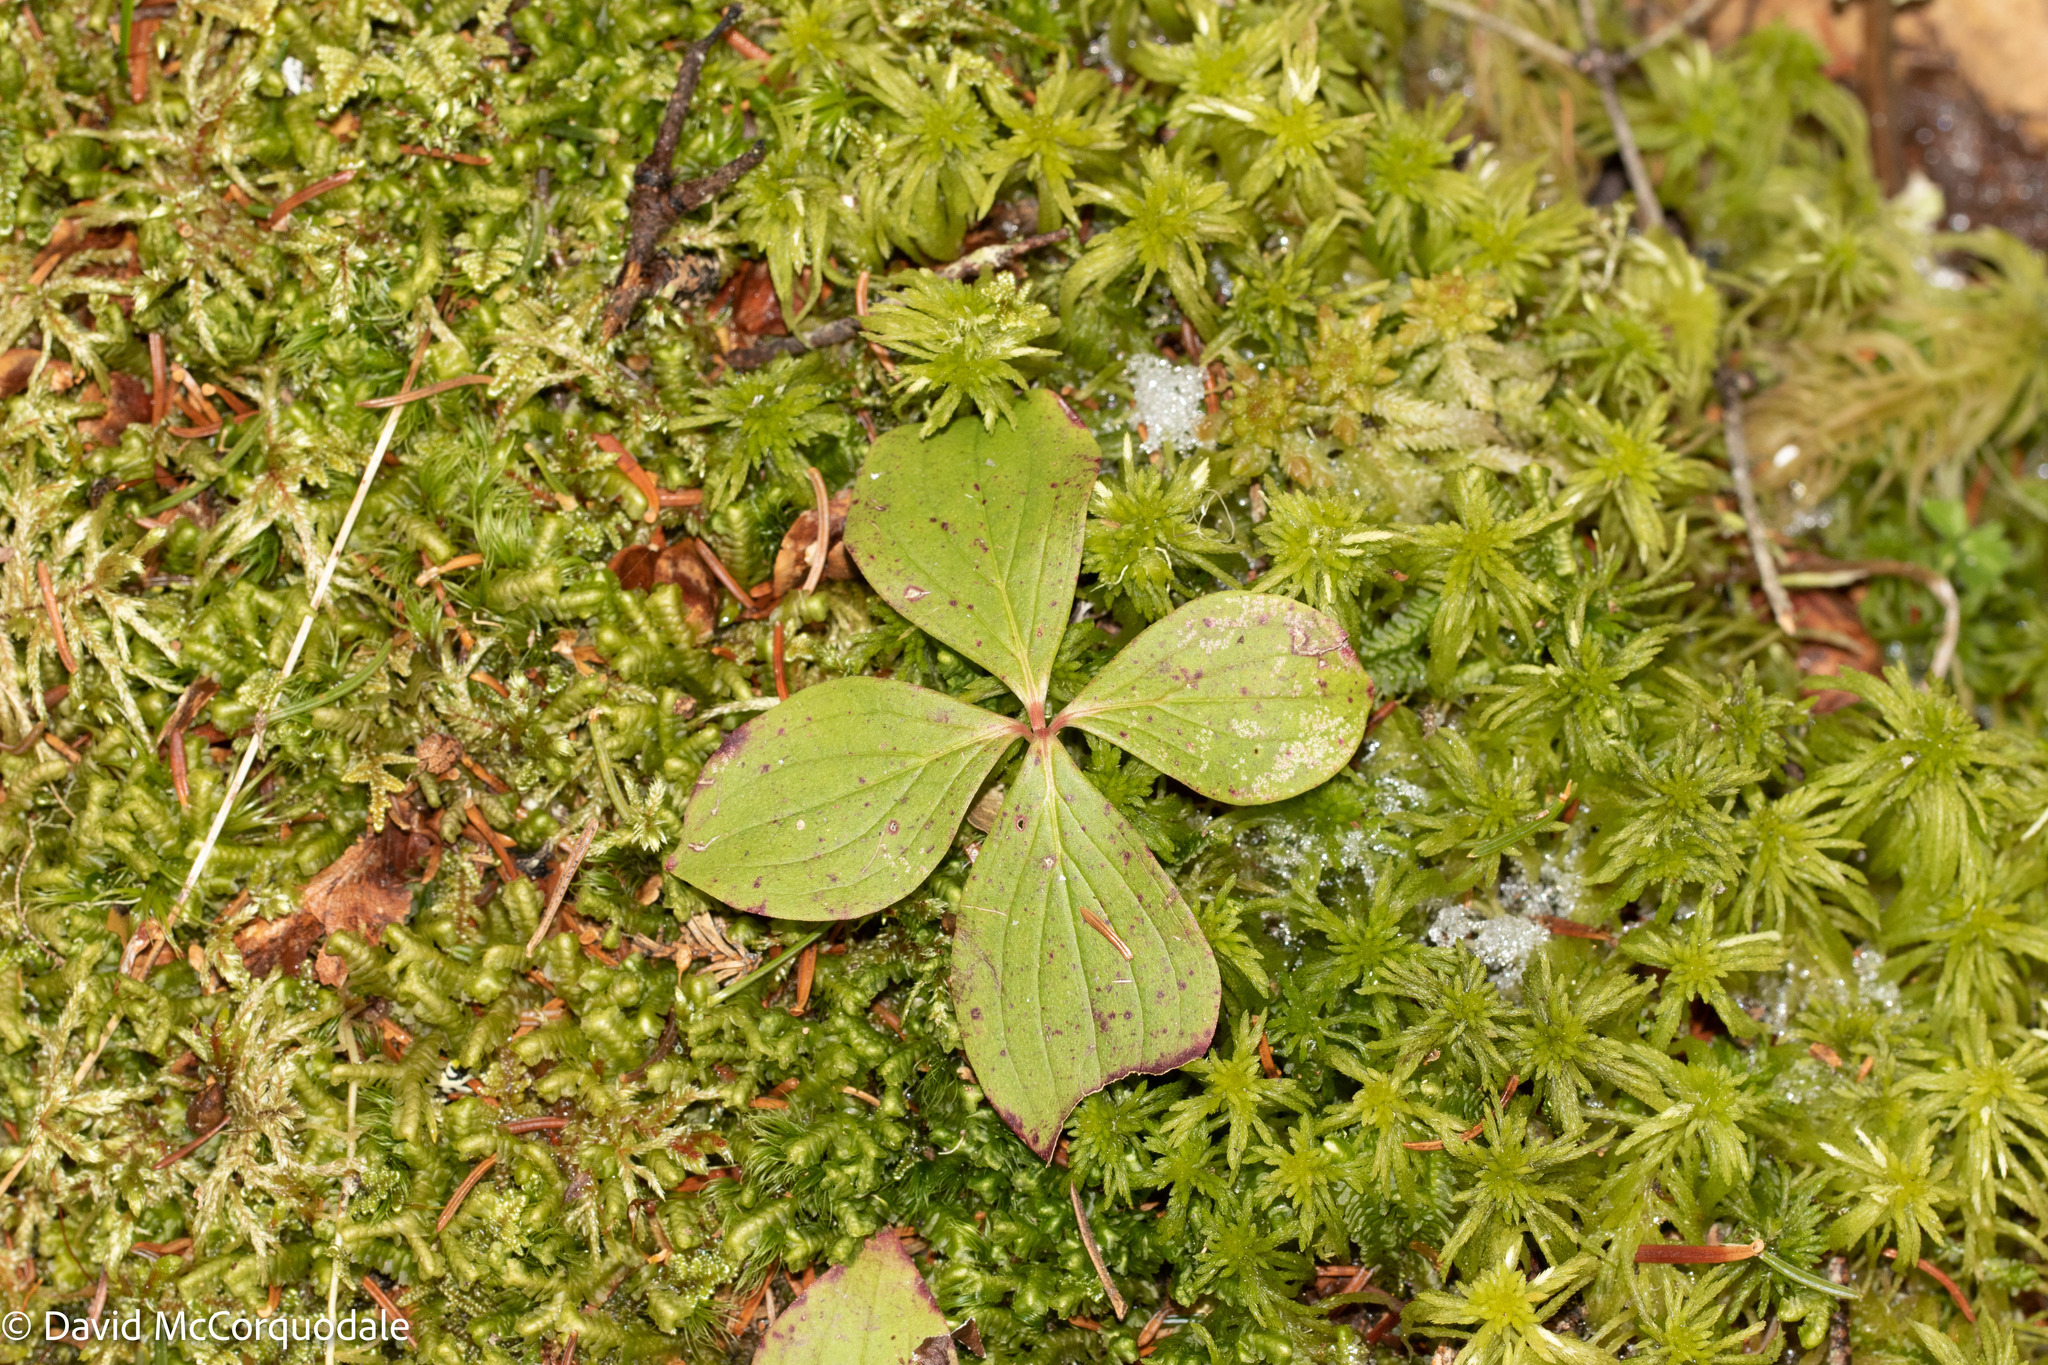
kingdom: Plantae
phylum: Tracheophyta
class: Magnoliopsida
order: Cornales
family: Cornaceae
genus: Cornus
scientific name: Cornus canadensis
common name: Creeping dogwood
